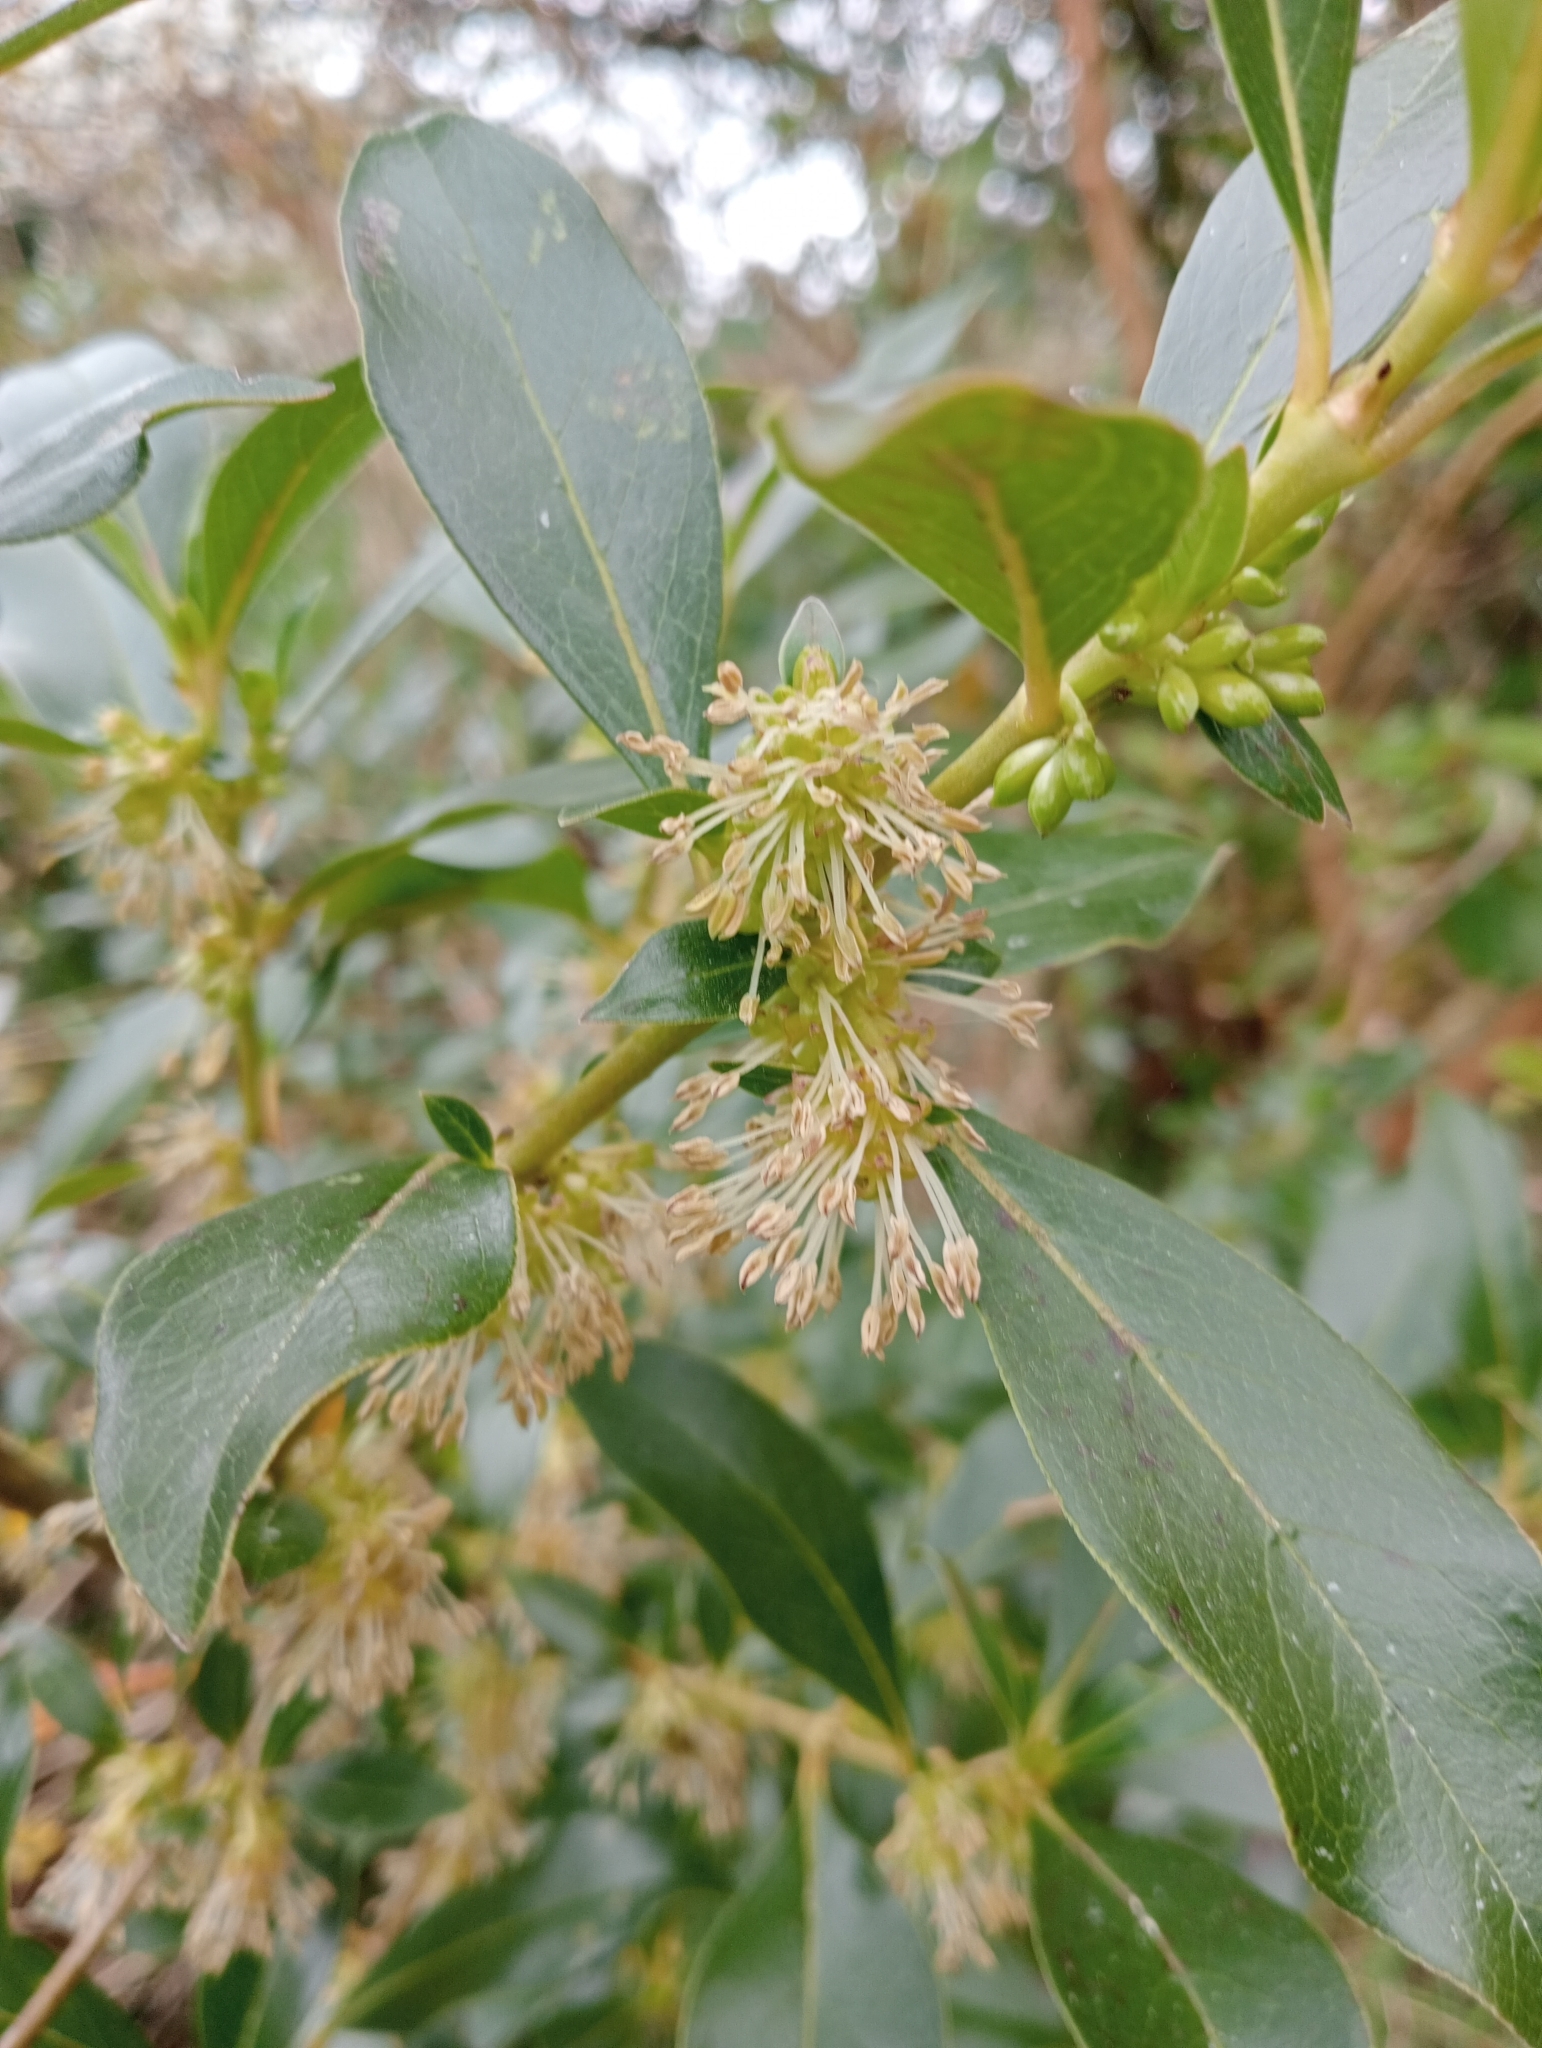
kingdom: Plantae
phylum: Tracheophyta
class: Magnoliopsida
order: Gentianales
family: Rubiaceae
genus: Coprosma
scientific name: Coprosma robusta
